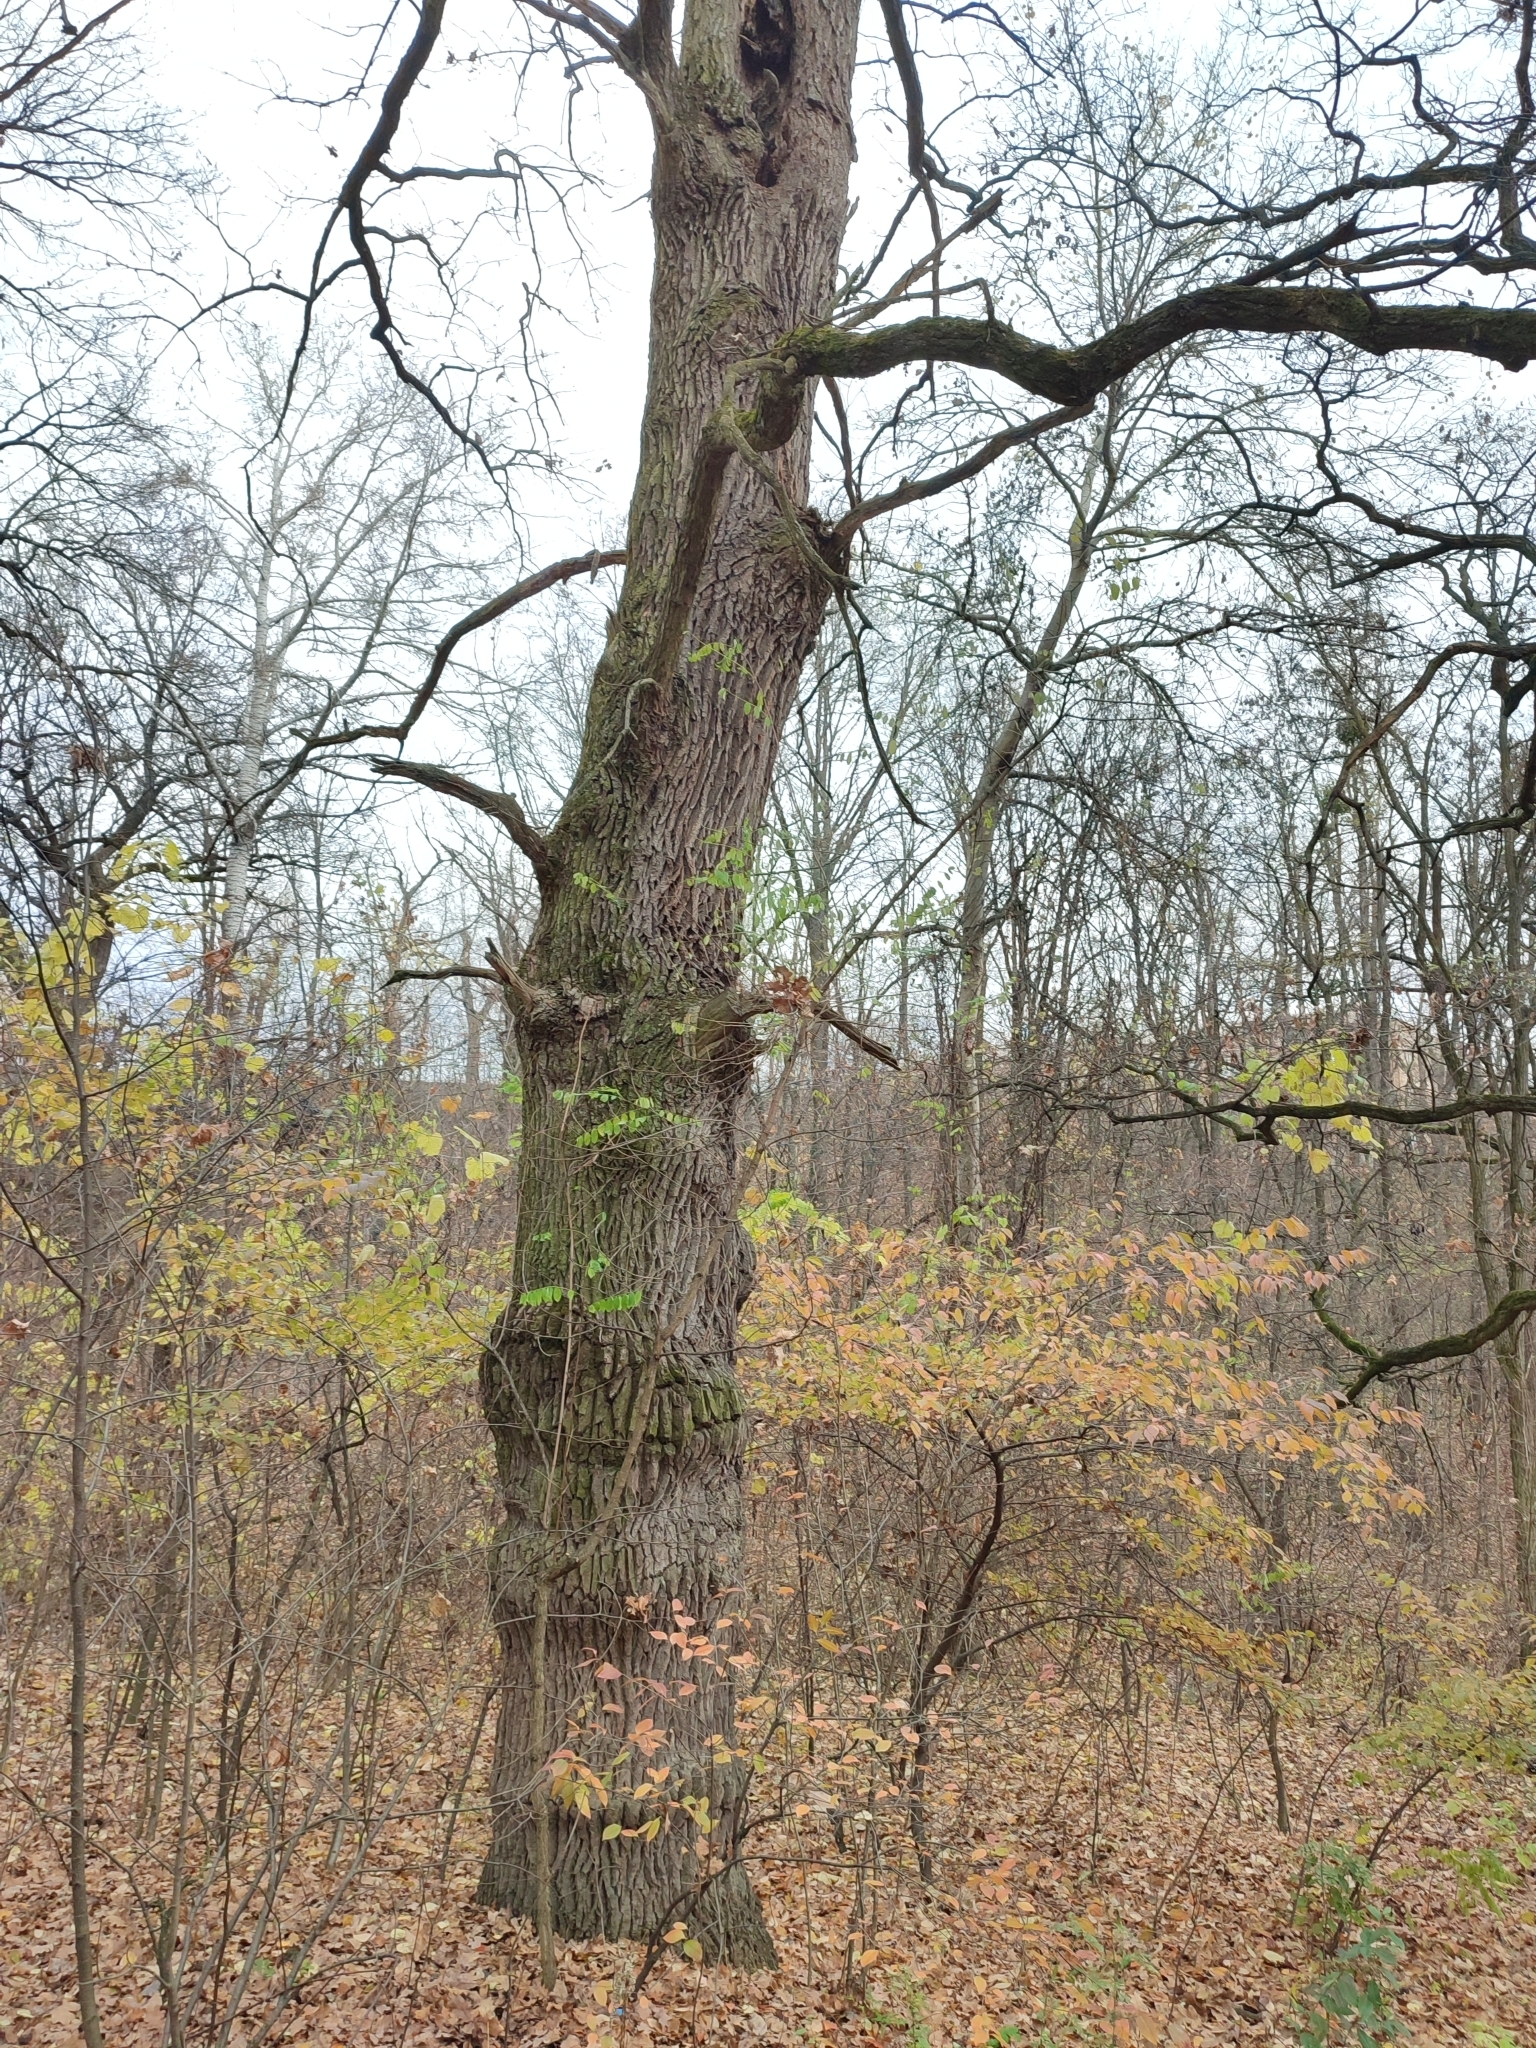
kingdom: Plantae
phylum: Tracheophyta
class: Magnoliopsida
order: Fagales
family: Fagaceae
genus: Quercus
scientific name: Quercus robur
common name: Pedunculate oak
